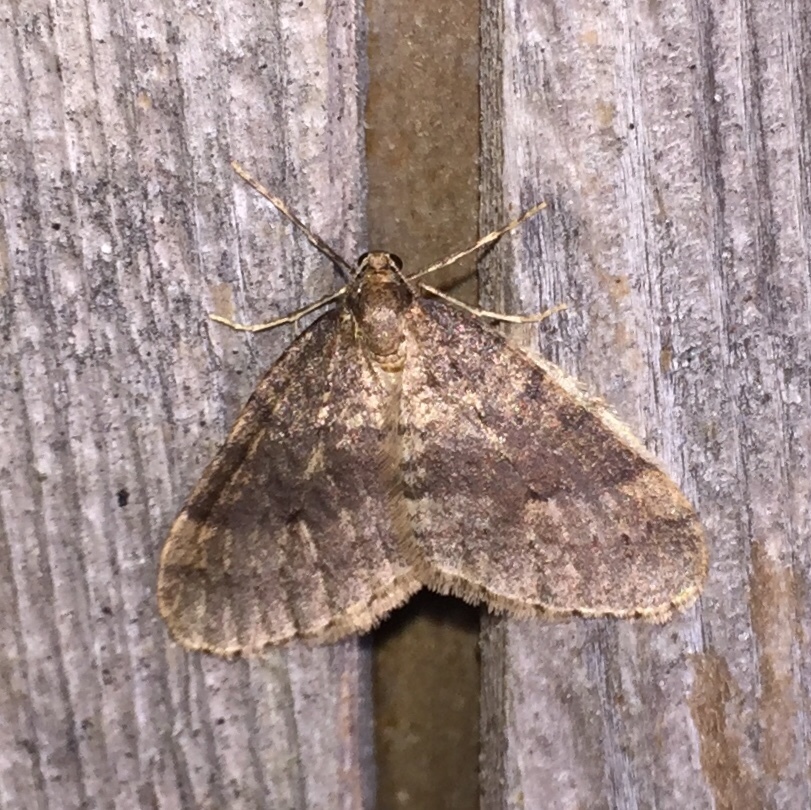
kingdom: Animalia
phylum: Arthropoda
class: Insecta
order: Lepidoptera
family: Geometridae
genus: Operophtera
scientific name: Operophtera brumata
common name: Winter moth
